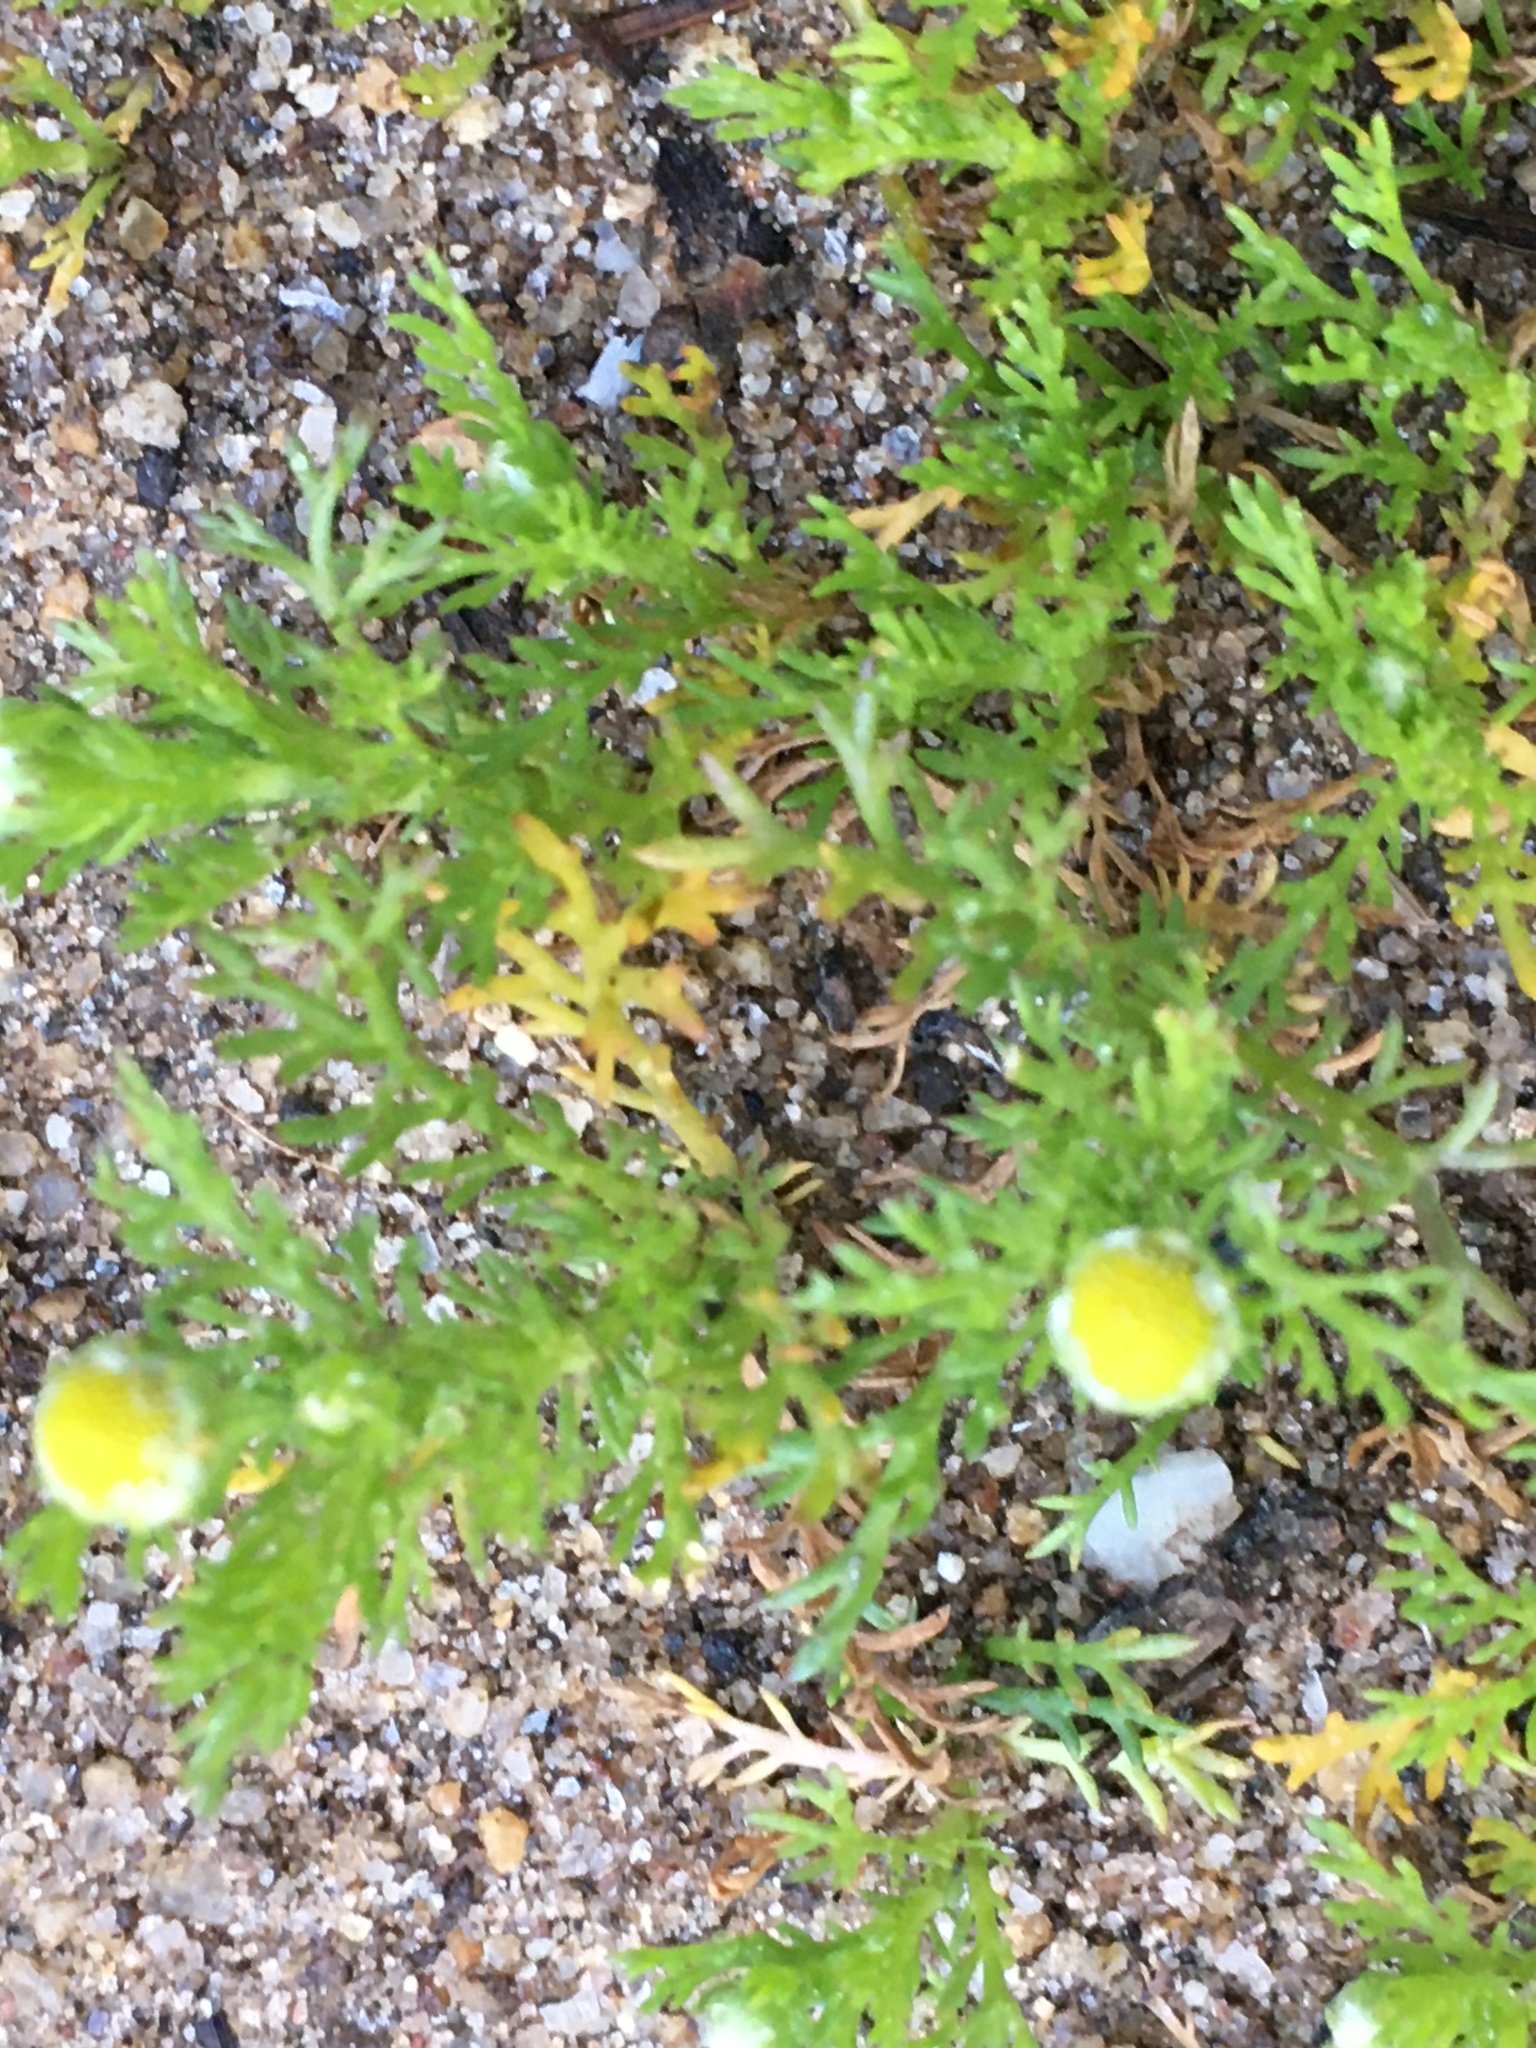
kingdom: Plantae
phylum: Tracheophyta
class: Magnoliopsida
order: Asterales
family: Asteraceae
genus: Matricaria
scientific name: Matricaria discoidea
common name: Disc mayweed
